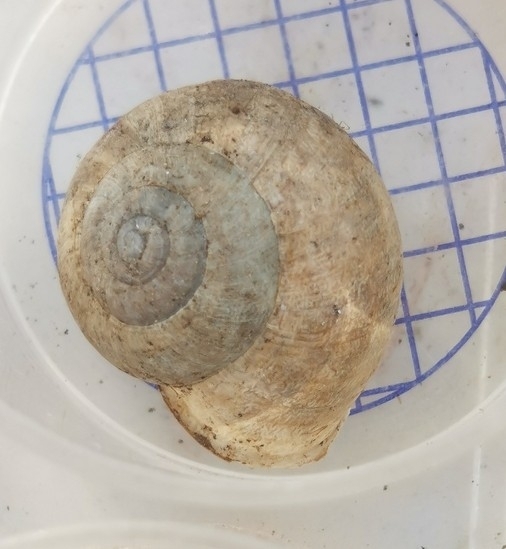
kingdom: Animalia
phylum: Mollusca
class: Gastropoda
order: Stylommatophora
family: Helicidae
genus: Eobania
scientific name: Eobania vermiculata
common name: Chocolateband snail
